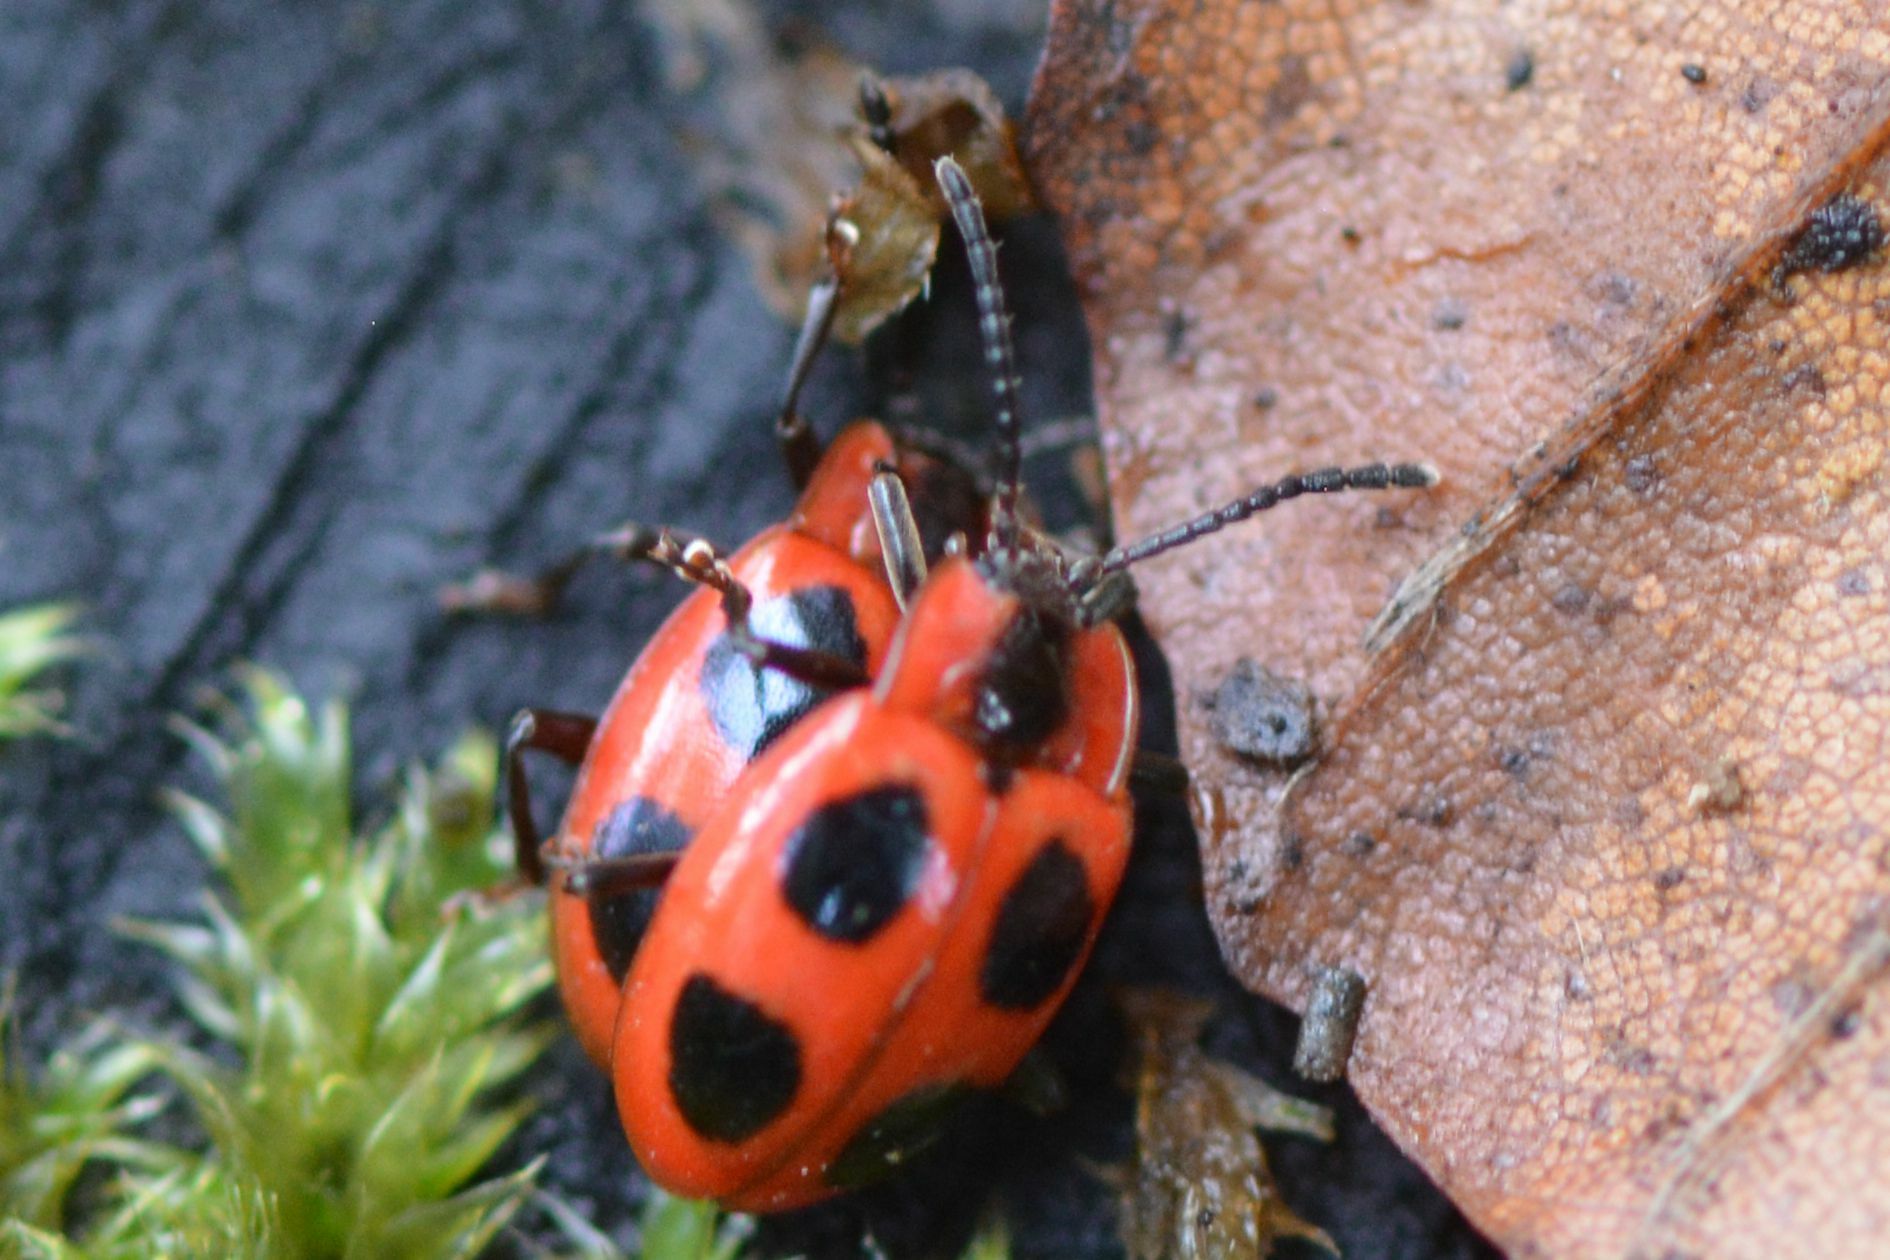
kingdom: Animalia
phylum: Arthropoda
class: Insecta
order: Coleoptera
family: Endomychidae
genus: Endomychus
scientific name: Endomychus coccineus
